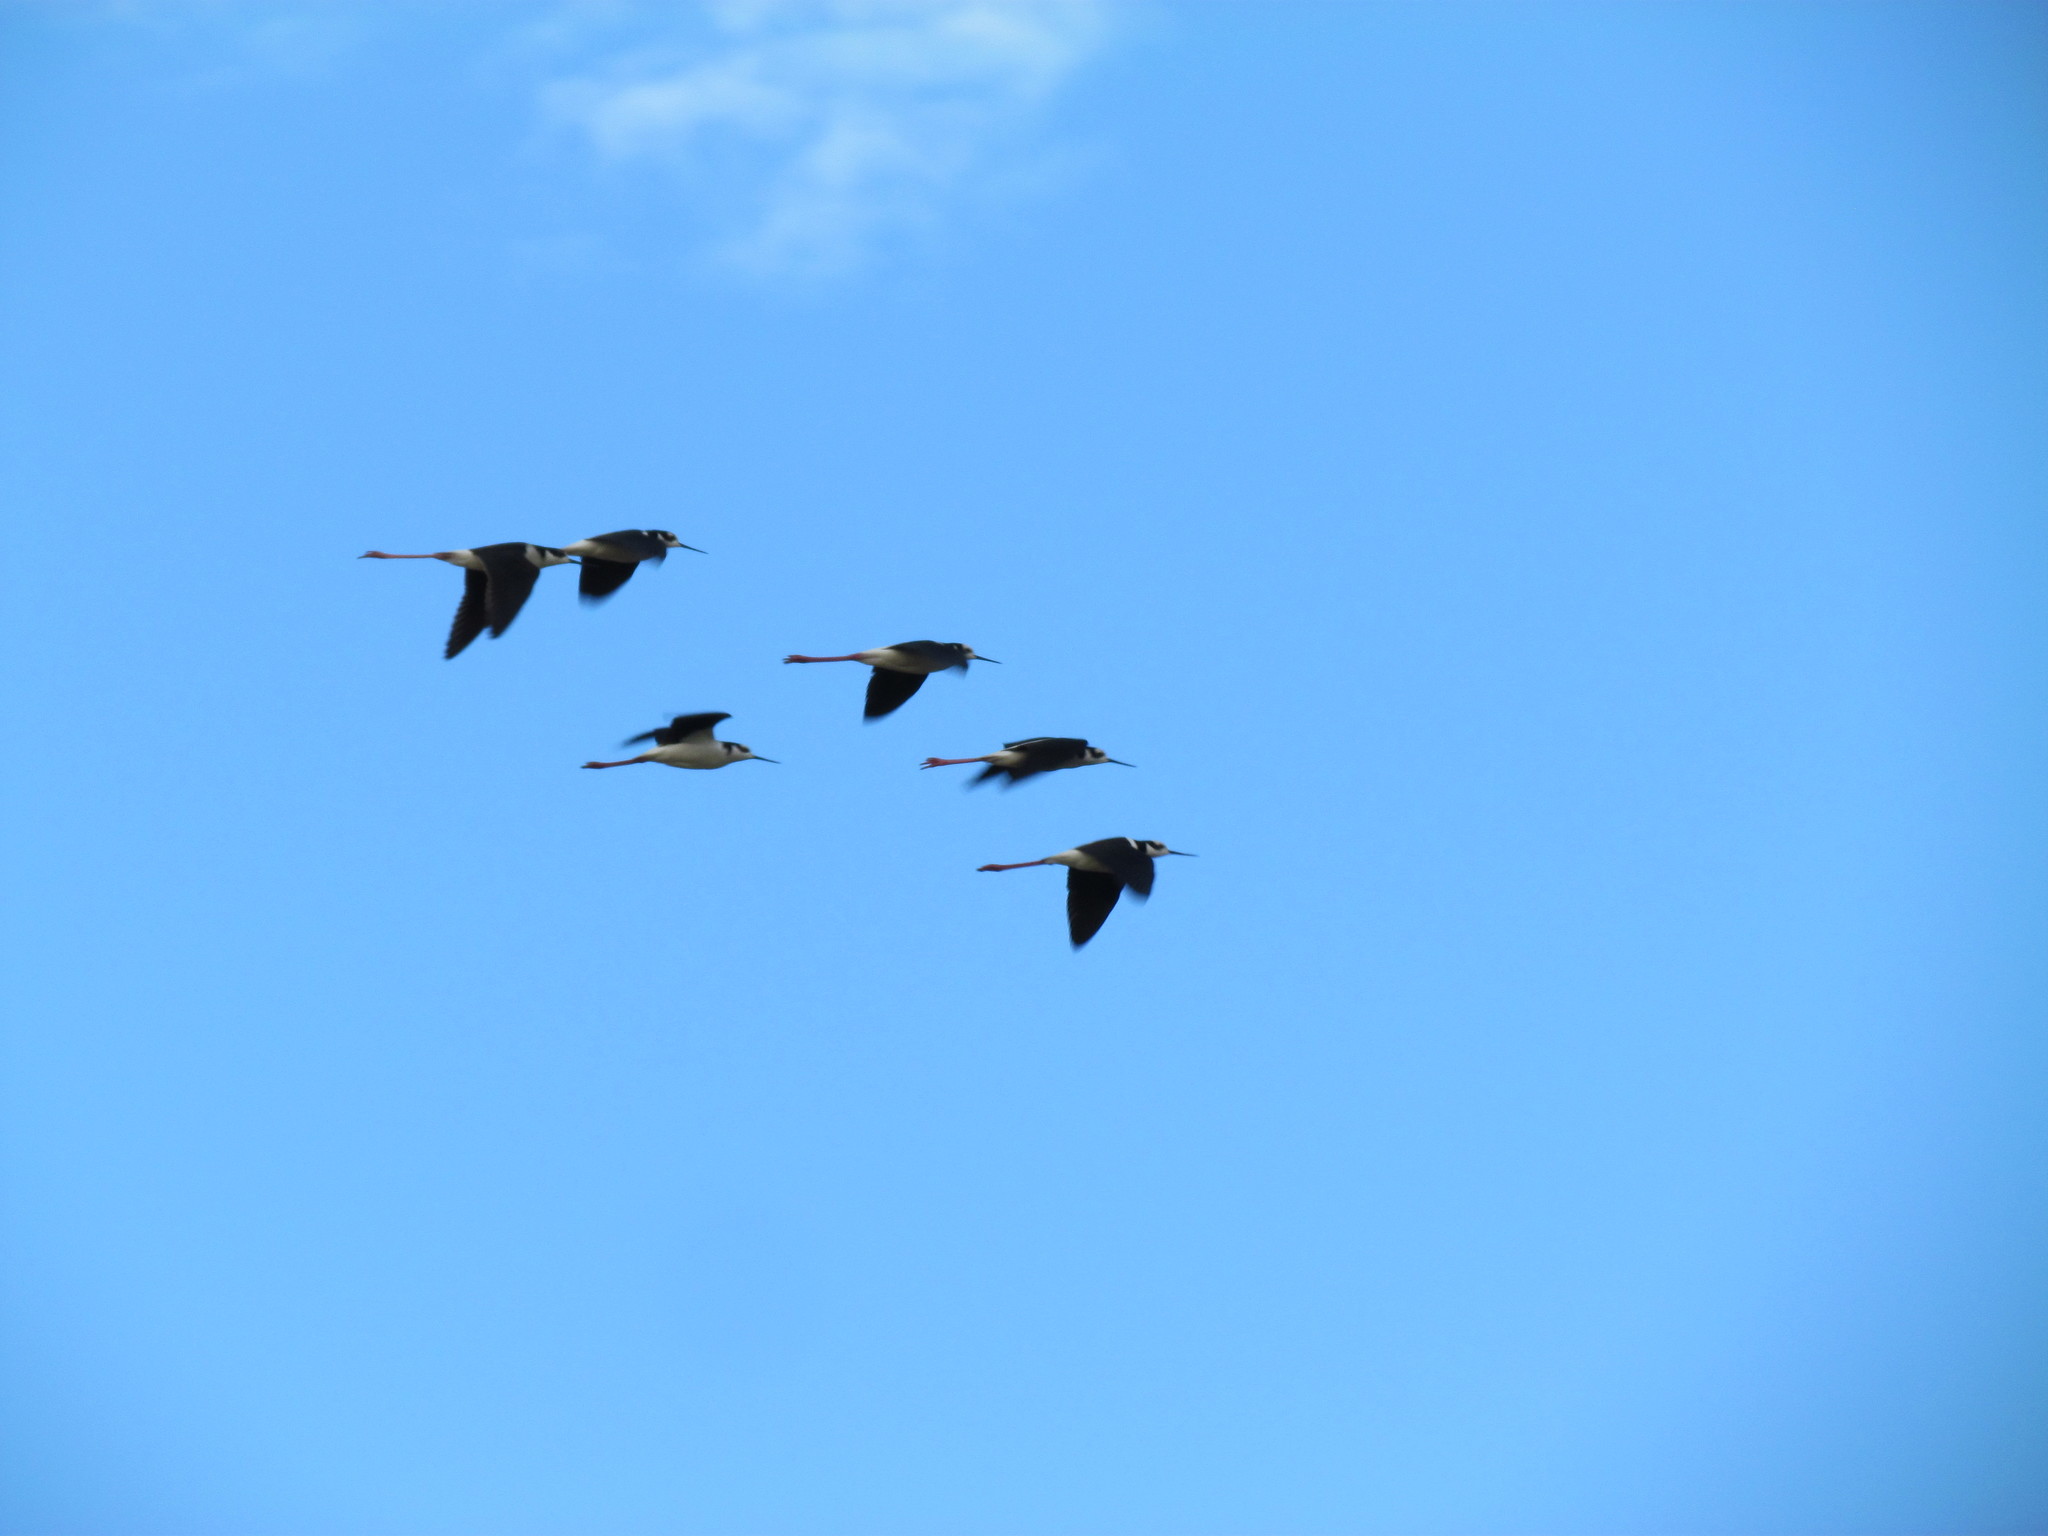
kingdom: Animalia
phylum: Chordata
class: Aves
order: Charadriiformes
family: Recurvirostridae
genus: Himantopus
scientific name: Himantopus mexicanus
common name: Black-necked stilt
